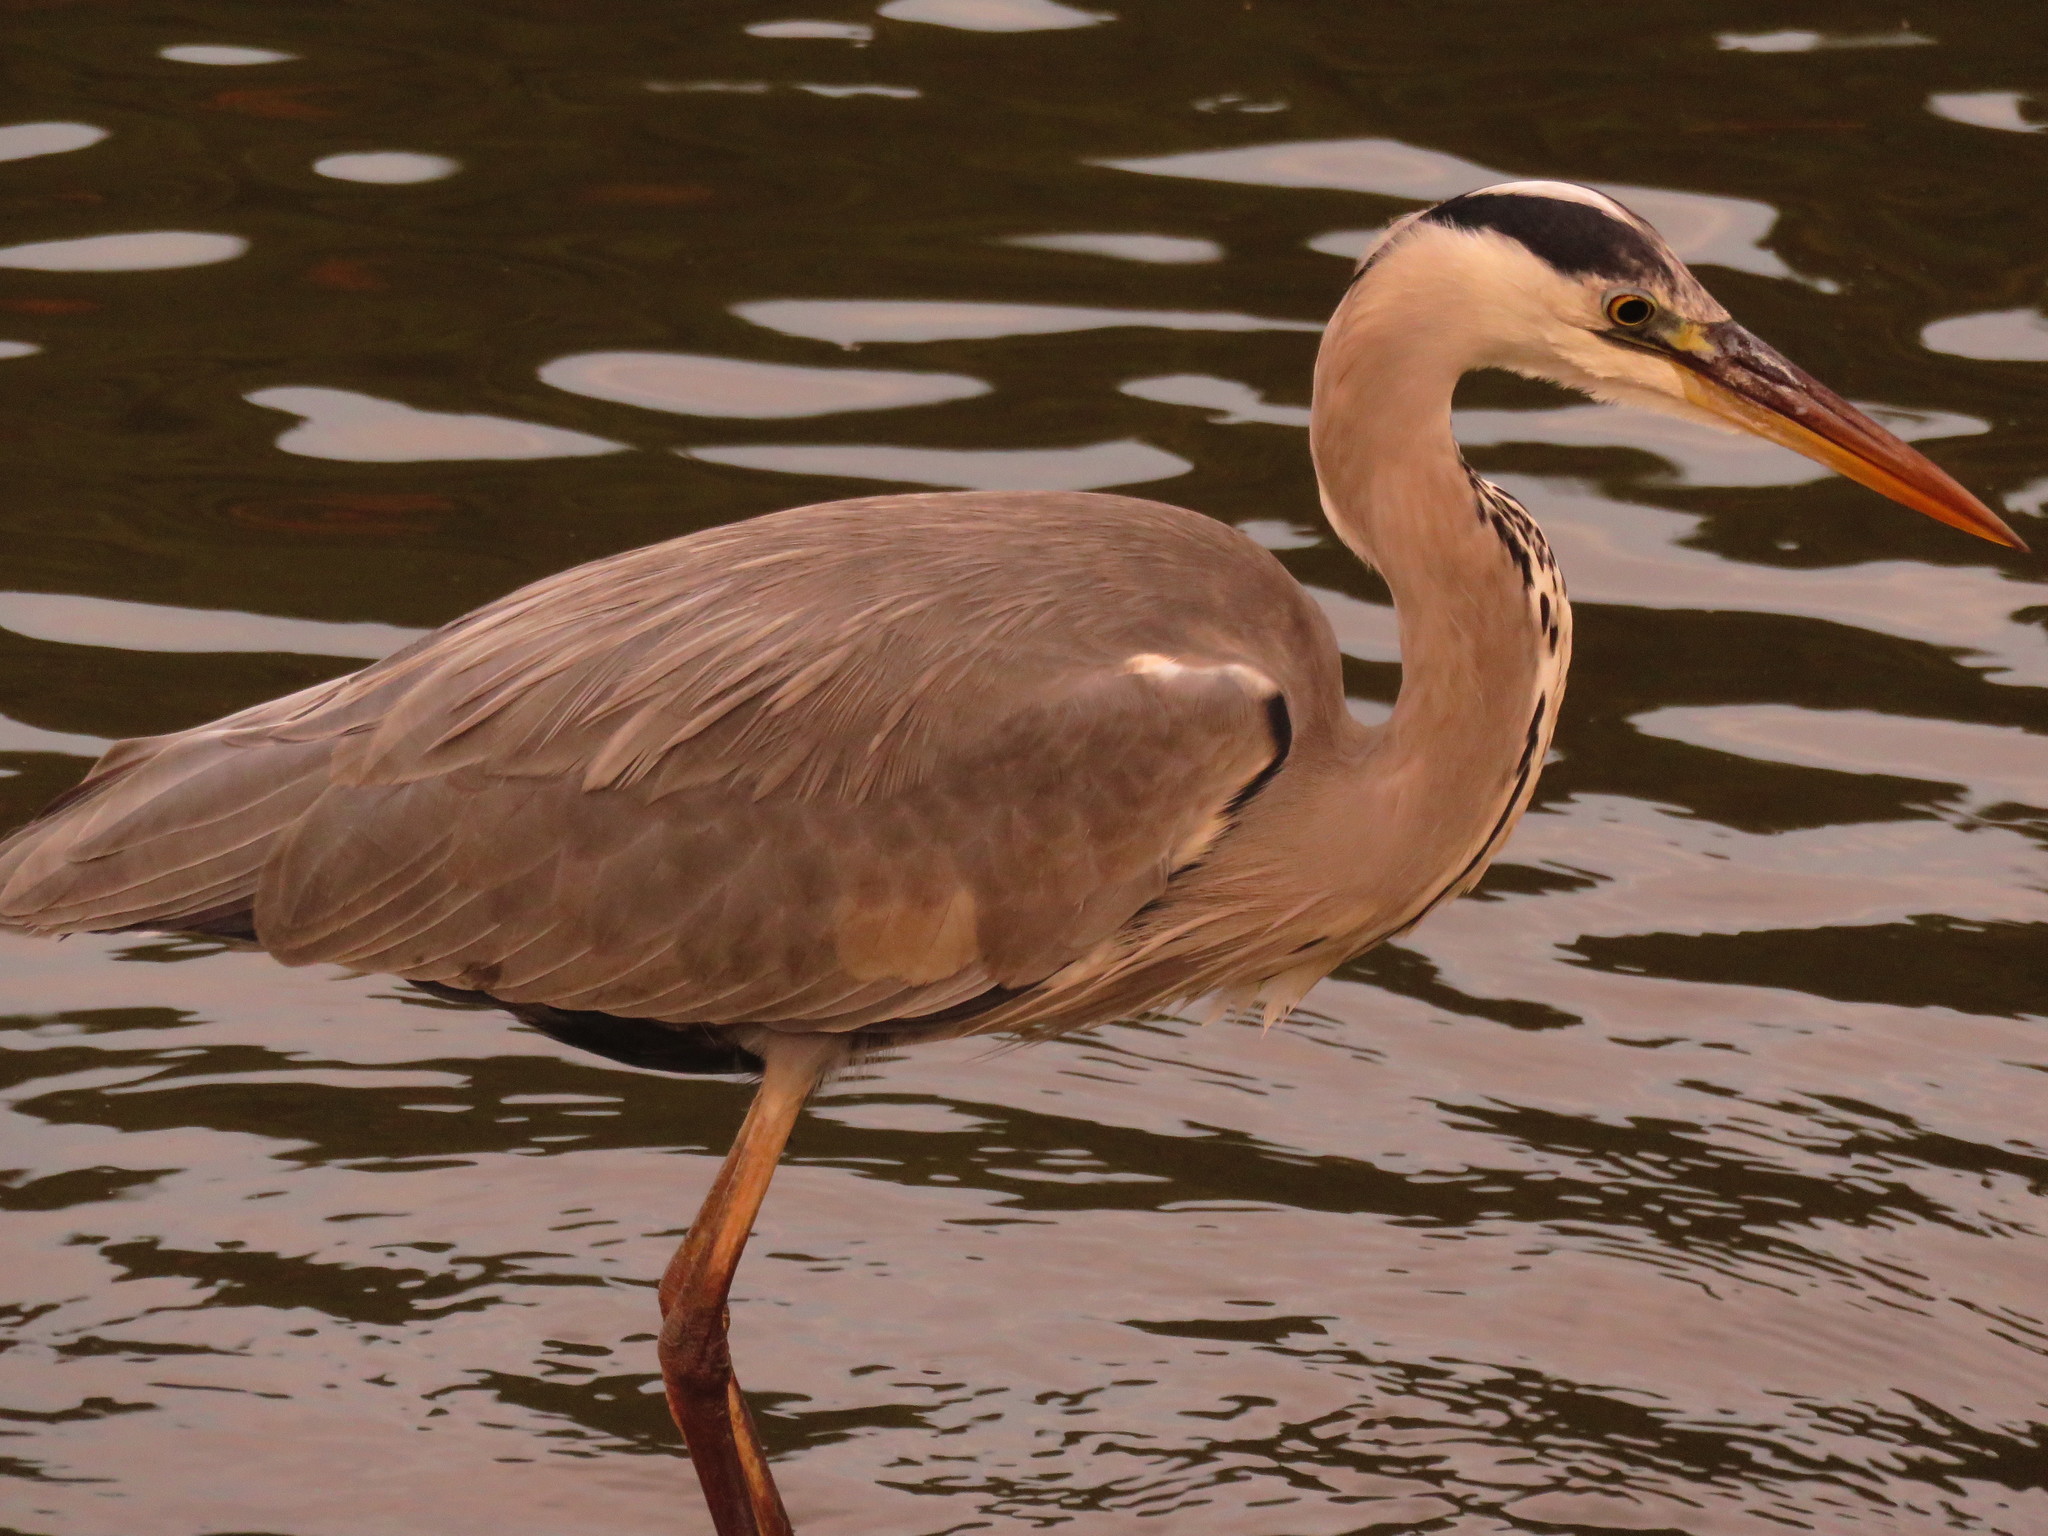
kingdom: Animalia
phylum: Chordata
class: Aves
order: Pelecaniformes
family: Ardeidae
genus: Ardea
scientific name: Ardea cinerea
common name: Grey heron
